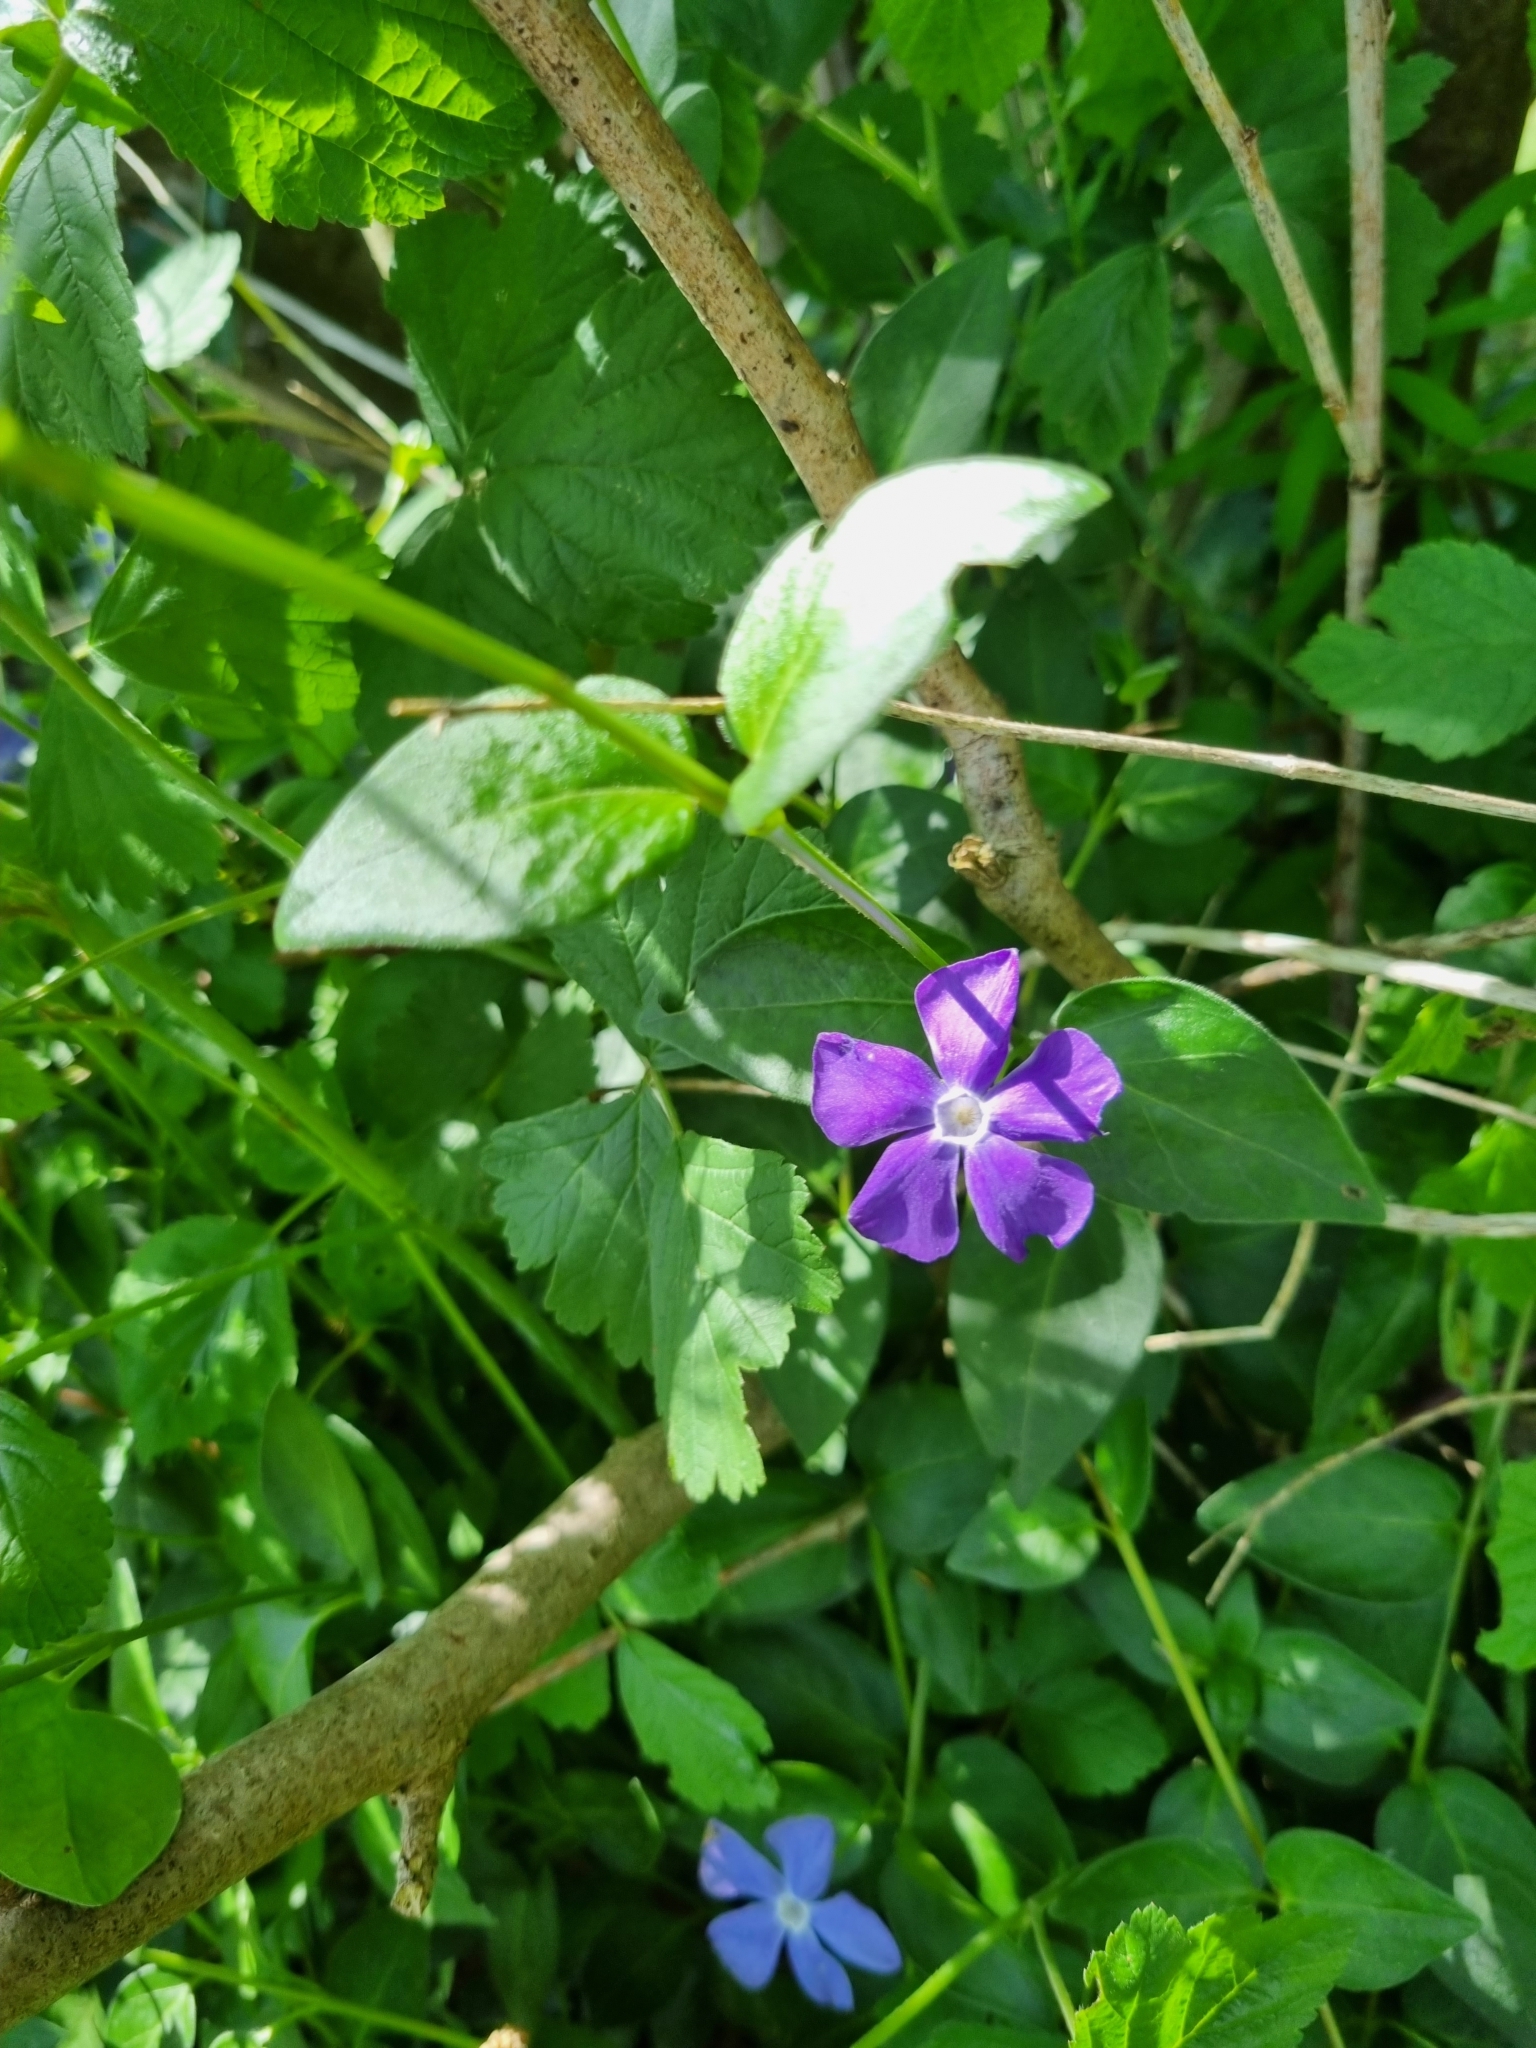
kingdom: Plantae
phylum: Tracheophyta
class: Magnoliopsida
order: Gentianales
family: Apocynaceae
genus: Vinca
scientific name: Vinca major
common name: Greater periwinkle
